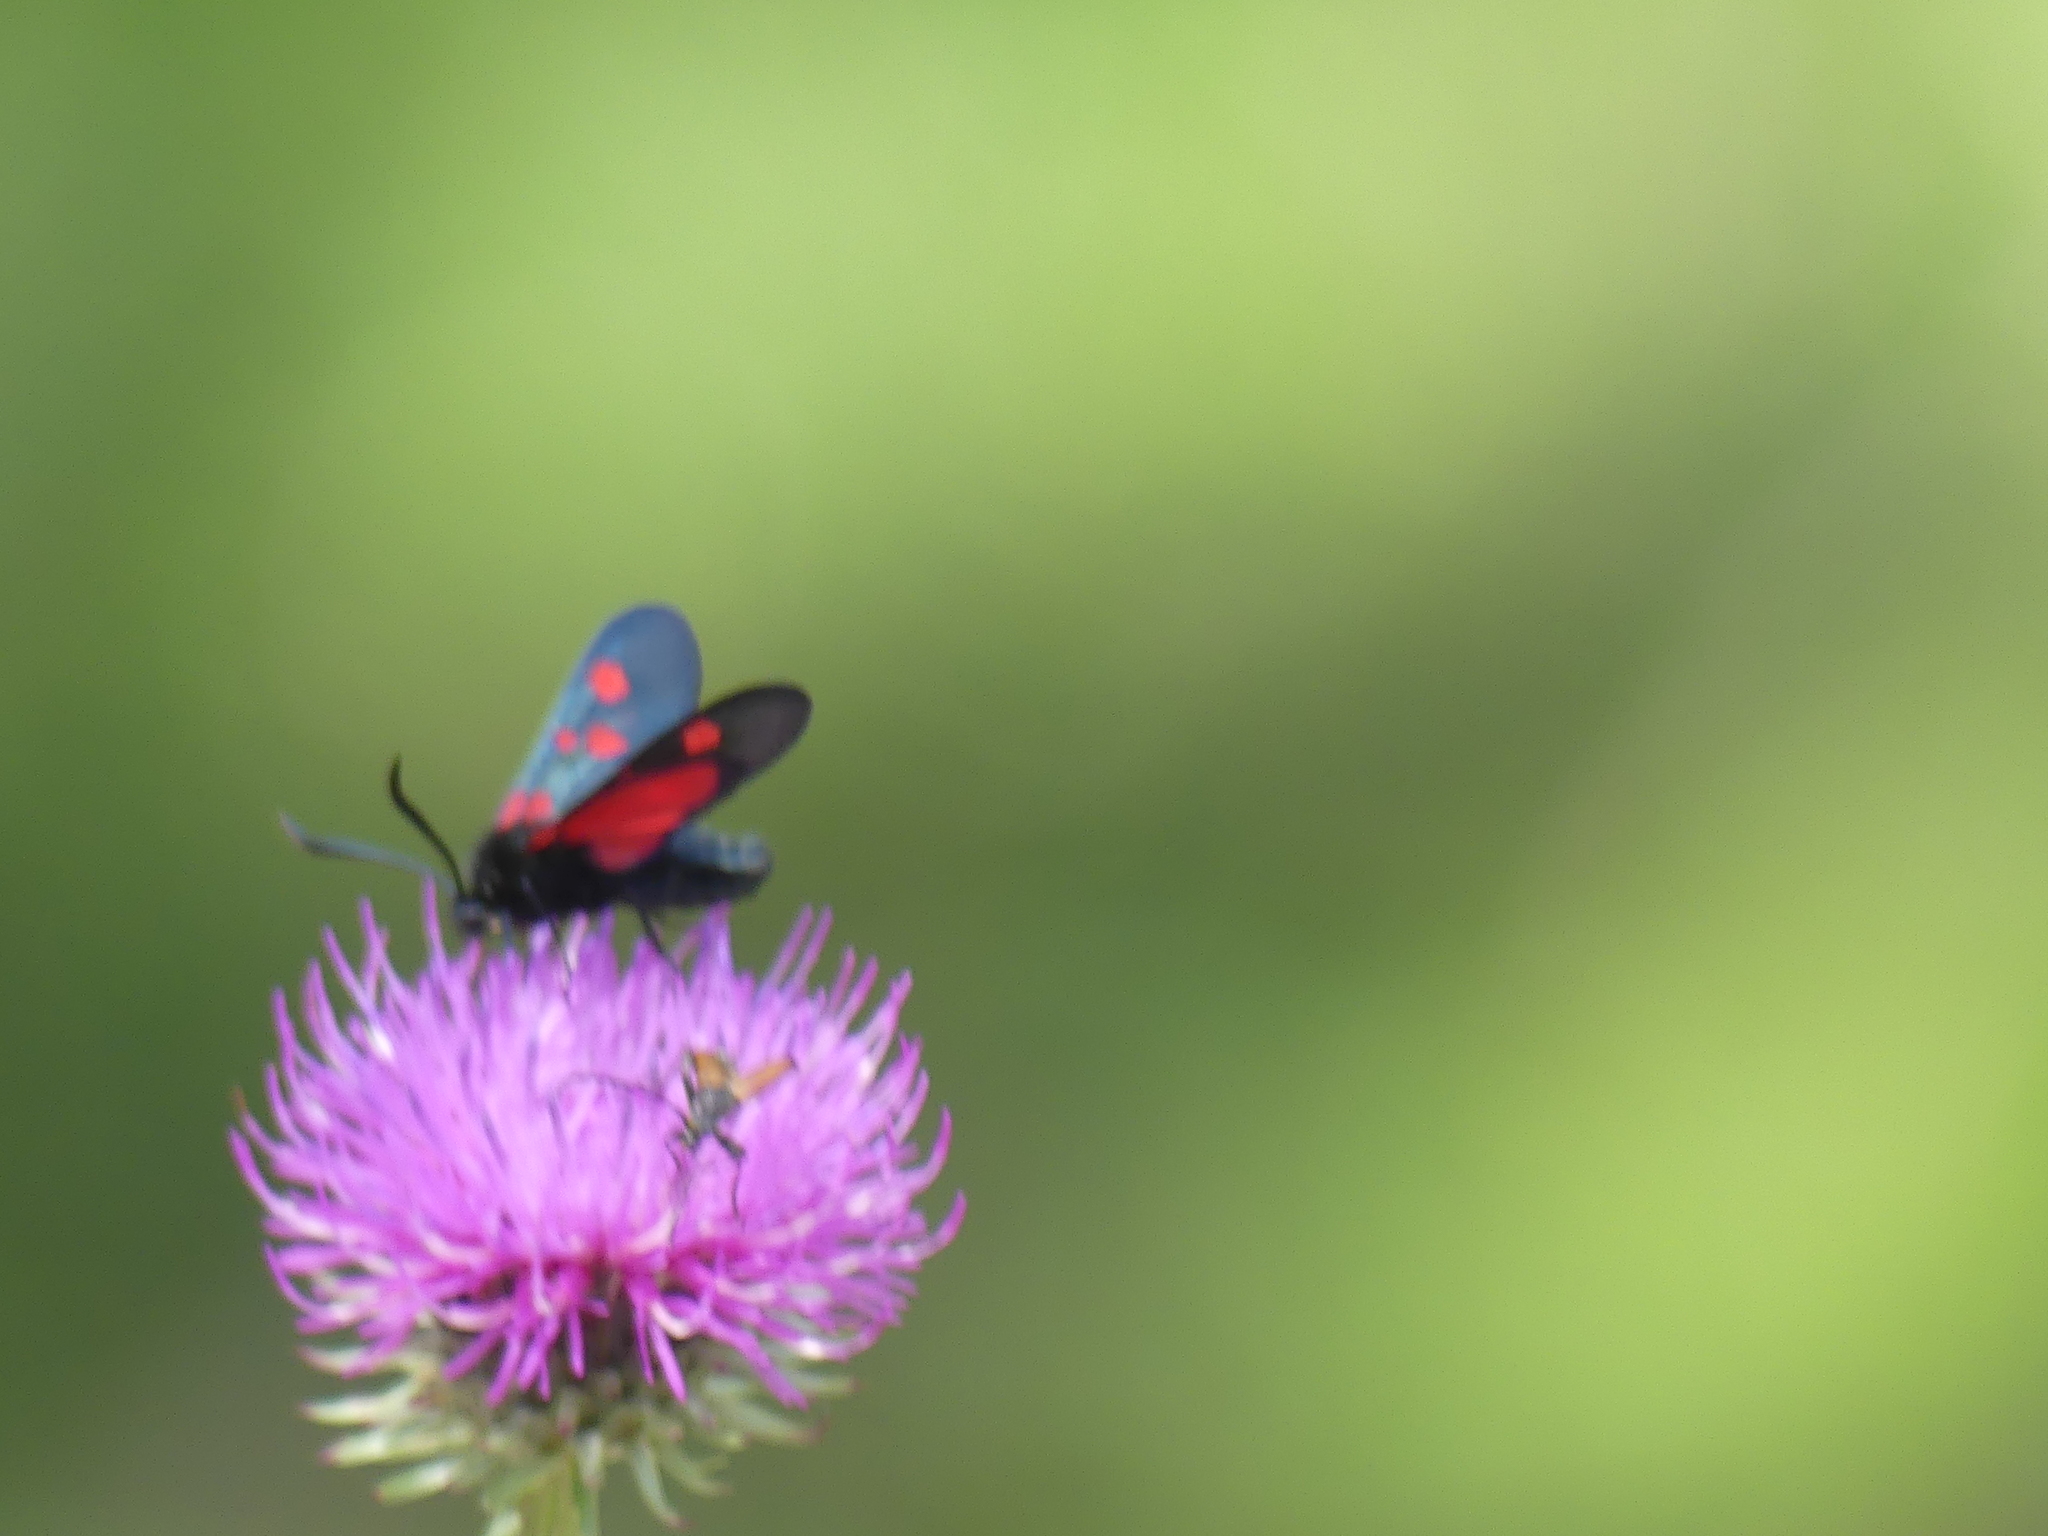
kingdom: Animalia
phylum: Arthropoda
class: Insecta
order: Lepidoptera
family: Zygaenidae
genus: Zygaena
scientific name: Zygaena lonicerae
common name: Narrow-bordered five-spot burnet
